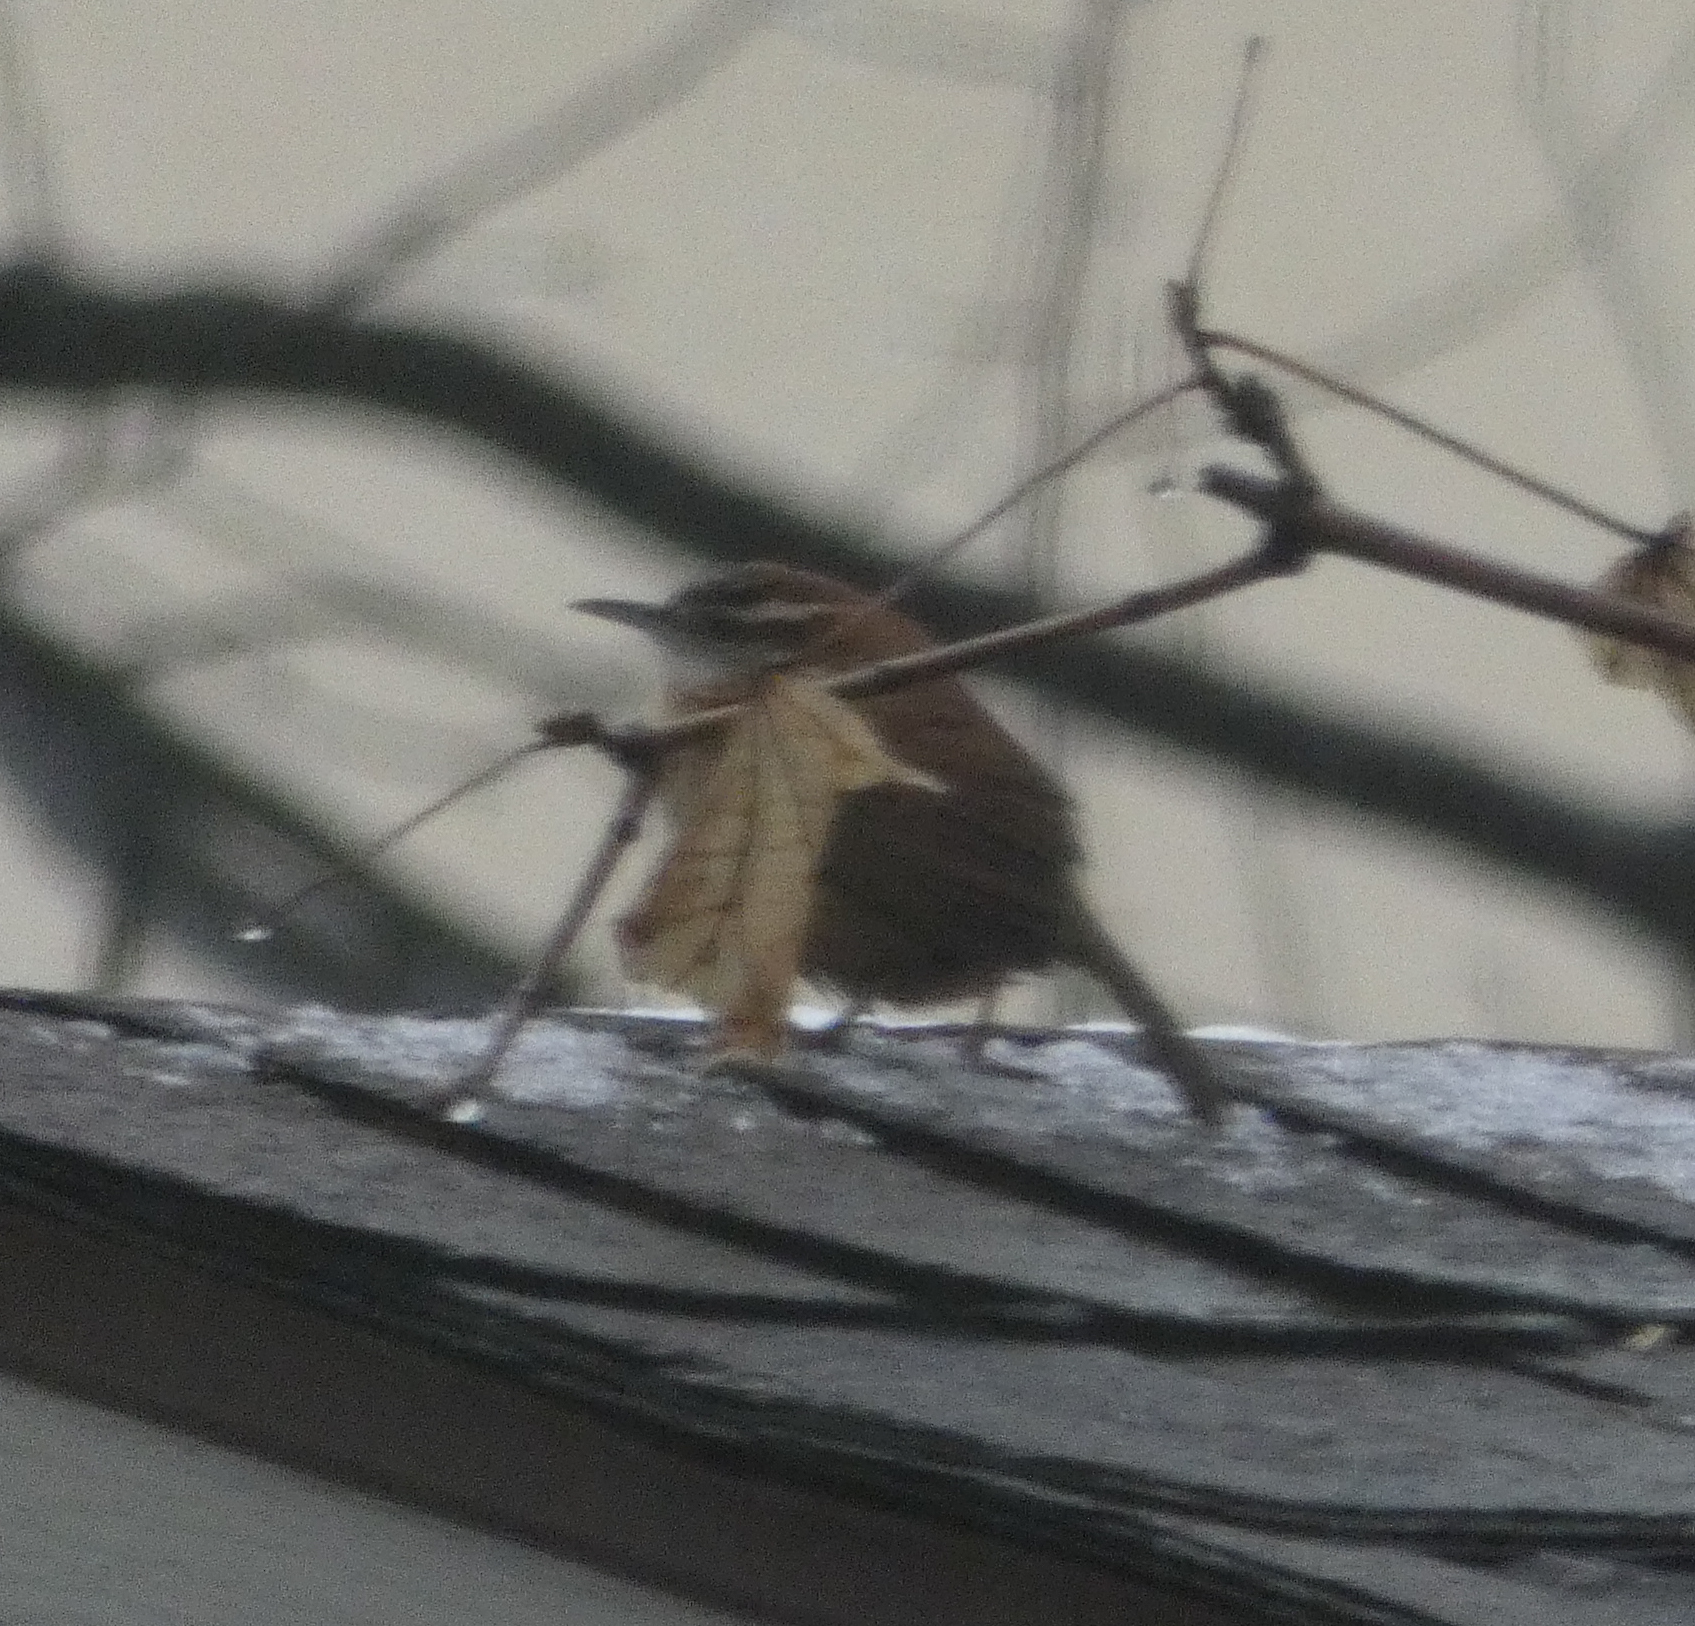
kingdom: Animalia
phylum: Chordata
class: Aves
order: Passeriformes
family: Troglodytidae
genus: Thryothorus
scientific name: Thryothorus ludovicianus
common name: Carolina wren
